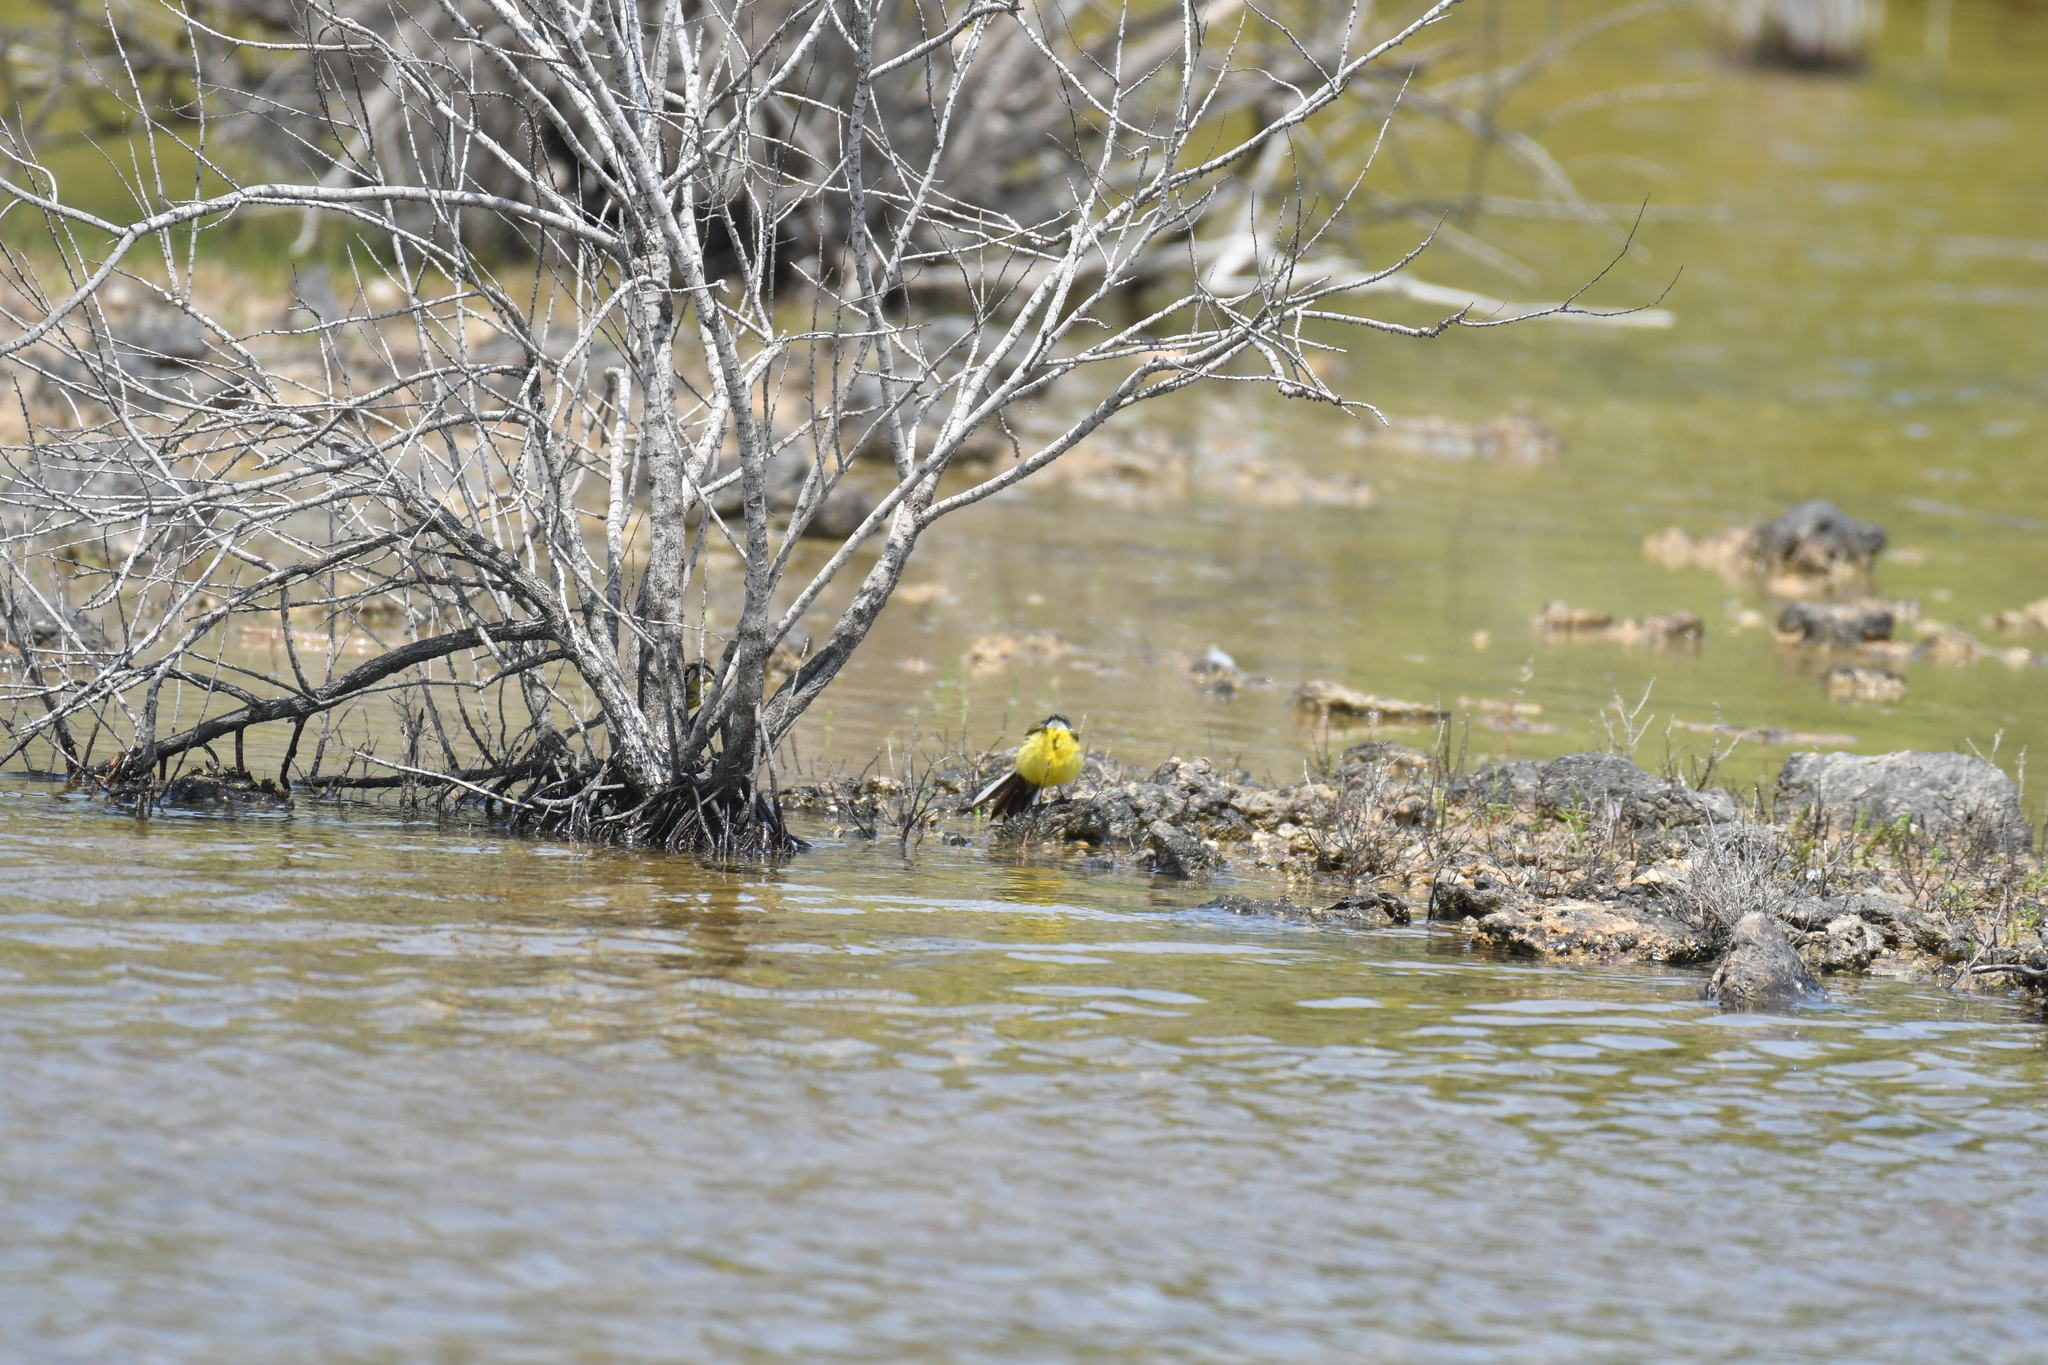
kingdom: Animalia
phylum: Chordata
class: Aves
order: Passeriformes
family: Motacillidae
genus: Motacilla
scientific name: Motacilla flava
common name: Western yellow wagtail
